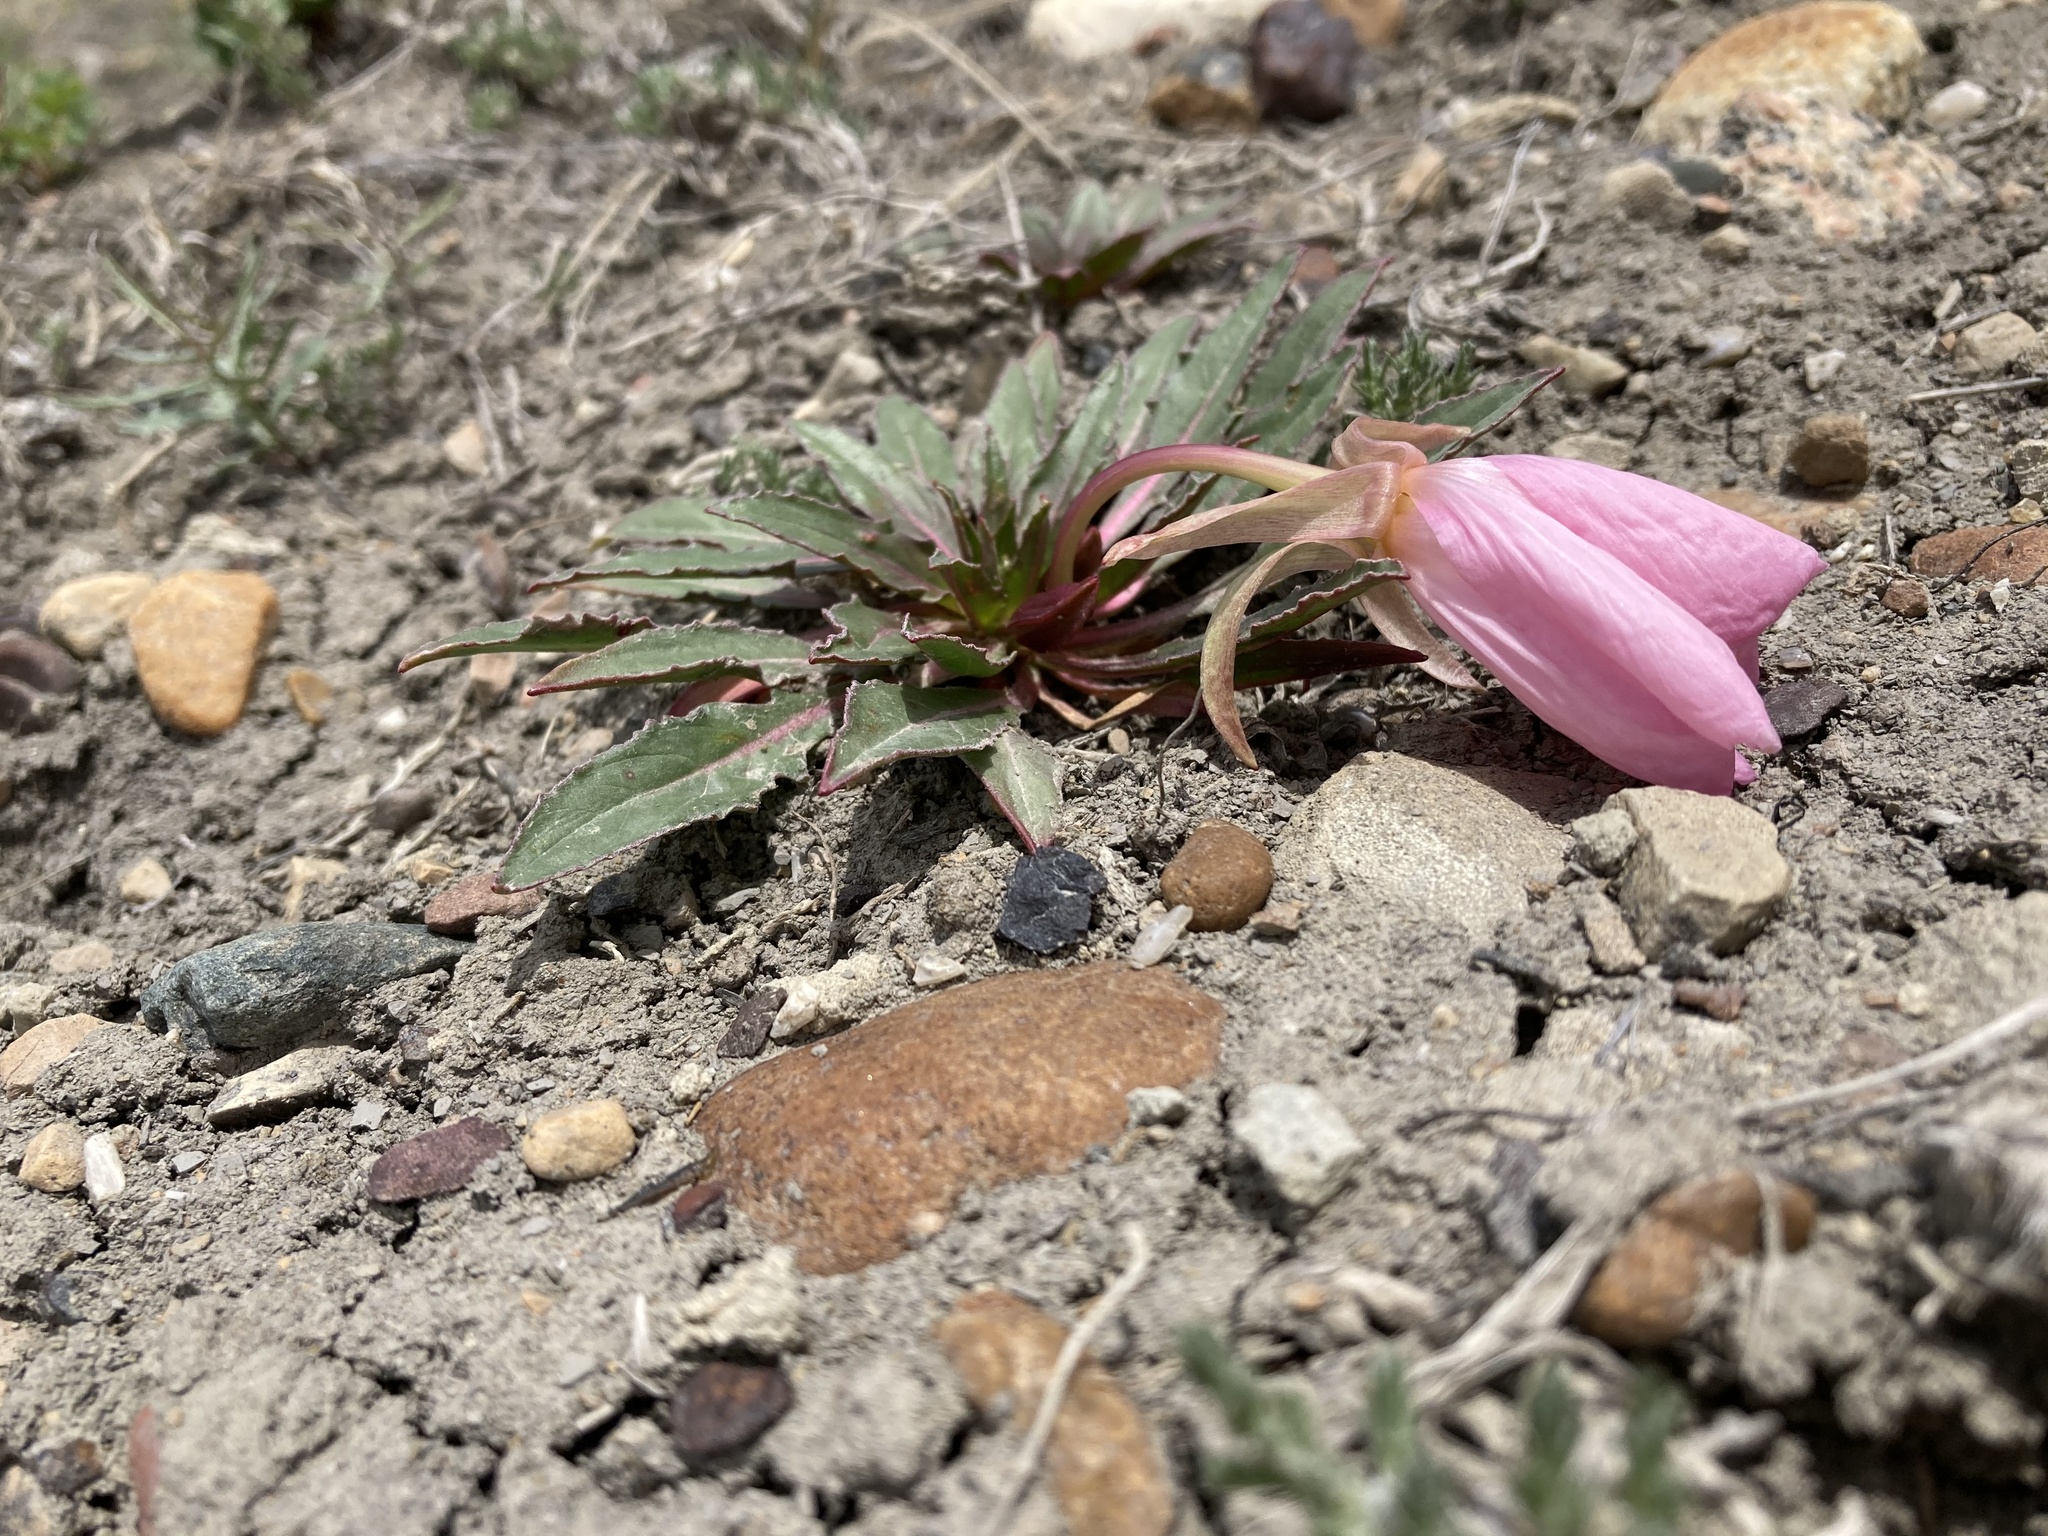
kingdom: Plantae
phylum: Tracheophyta
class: Magnoliopsida
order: Myrtales
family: Onagraceae
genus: Oenothera
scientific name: Oenothera cespitosa
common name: Tufted evening-primrose
